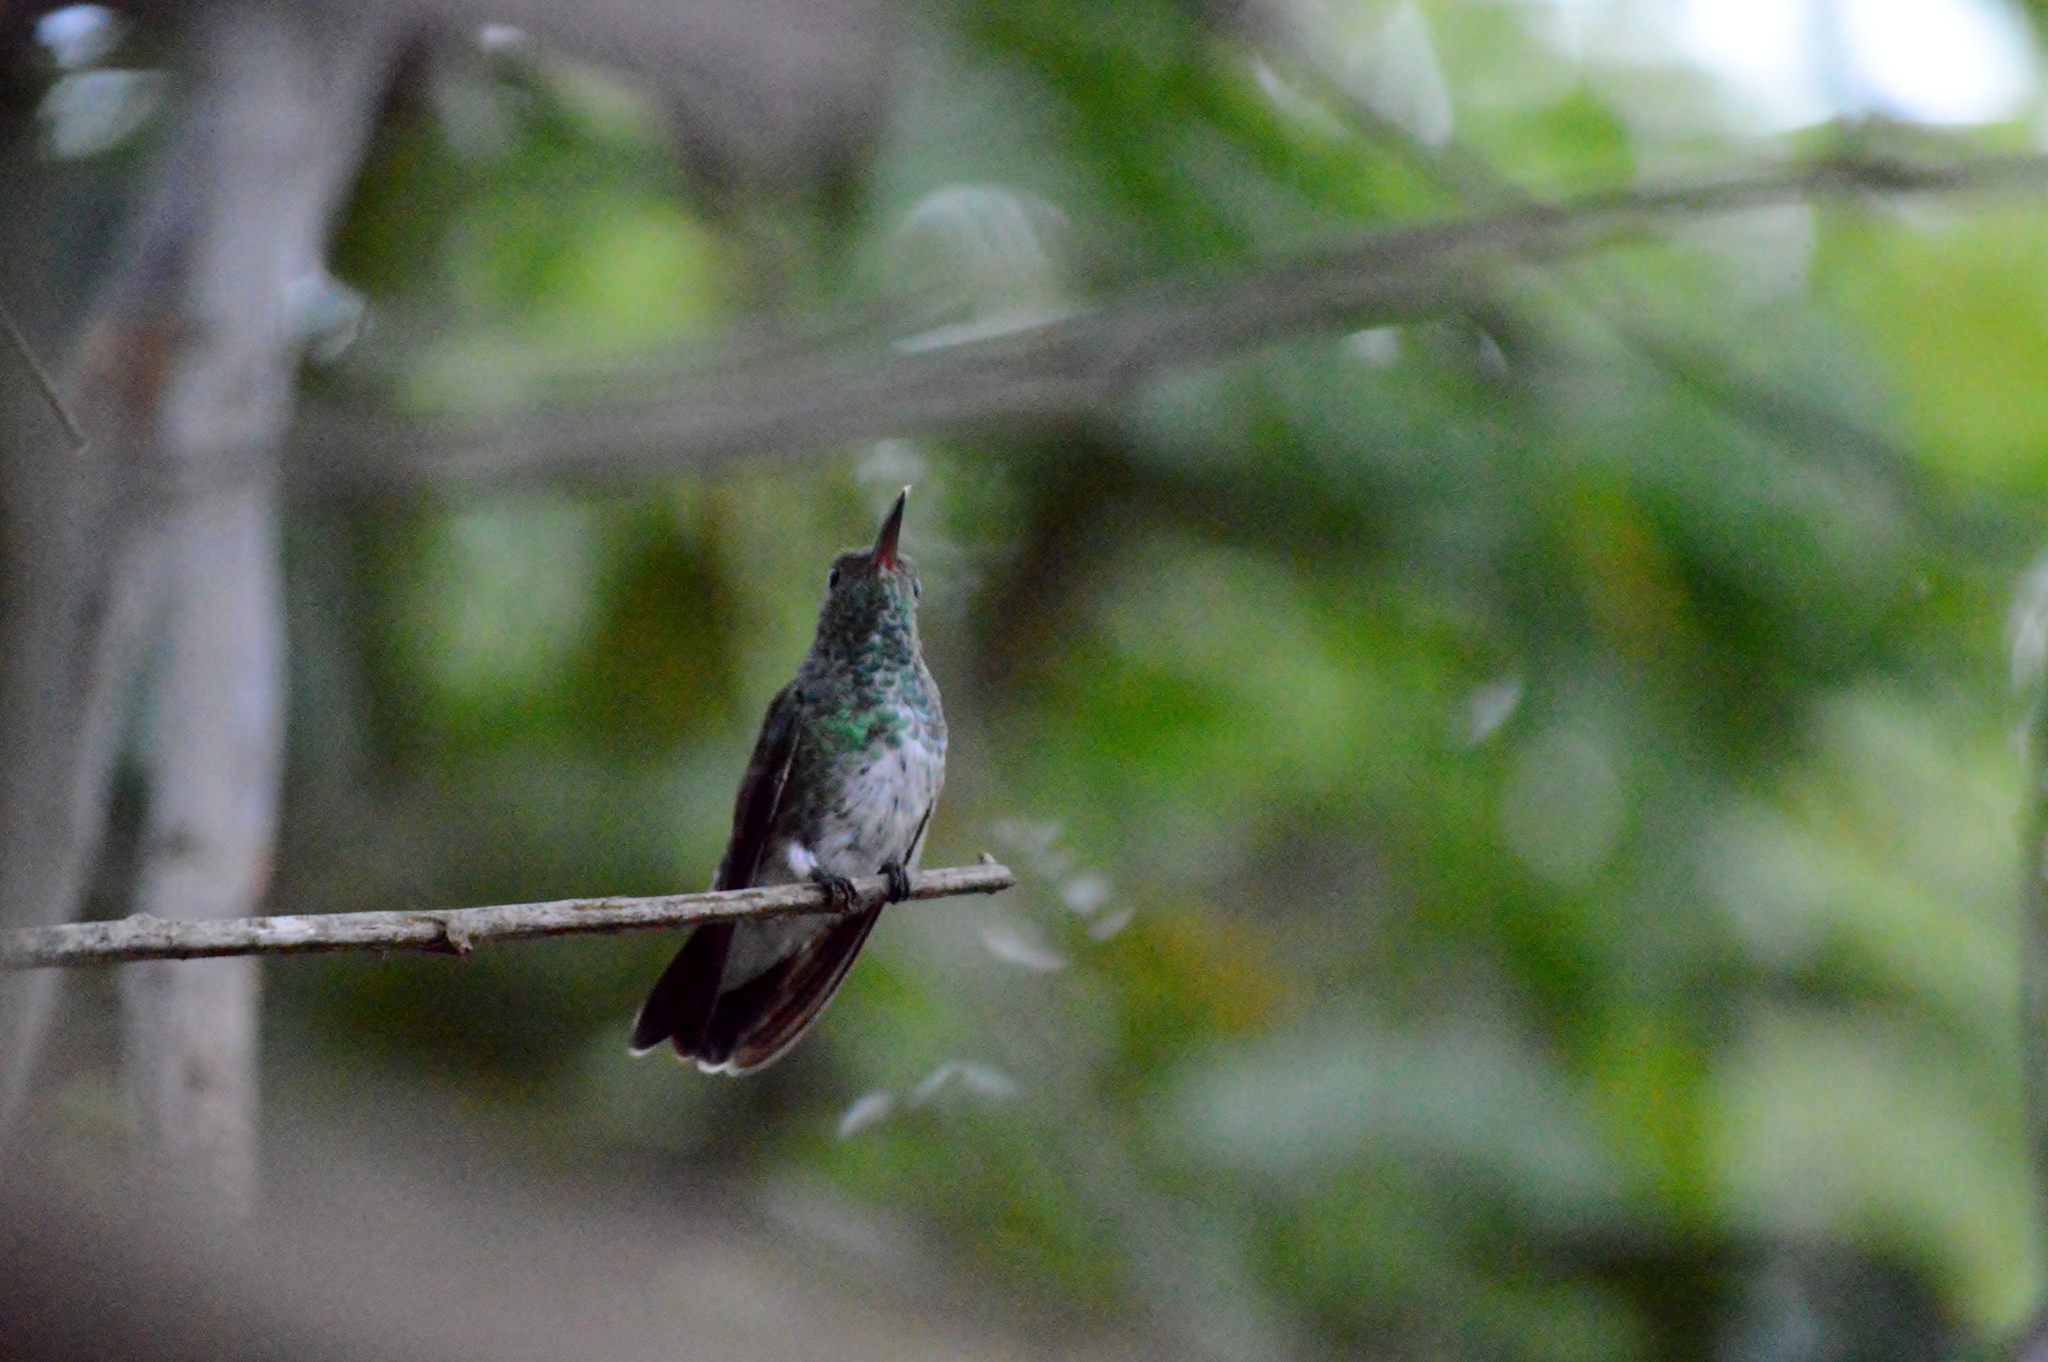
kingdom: Animalia
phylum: Chordata
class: Aves
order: Apodiformes
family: Trochilidae
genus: Chionomesa
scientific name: Chionomesa fimbriata
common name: Glittering-throated emerald
